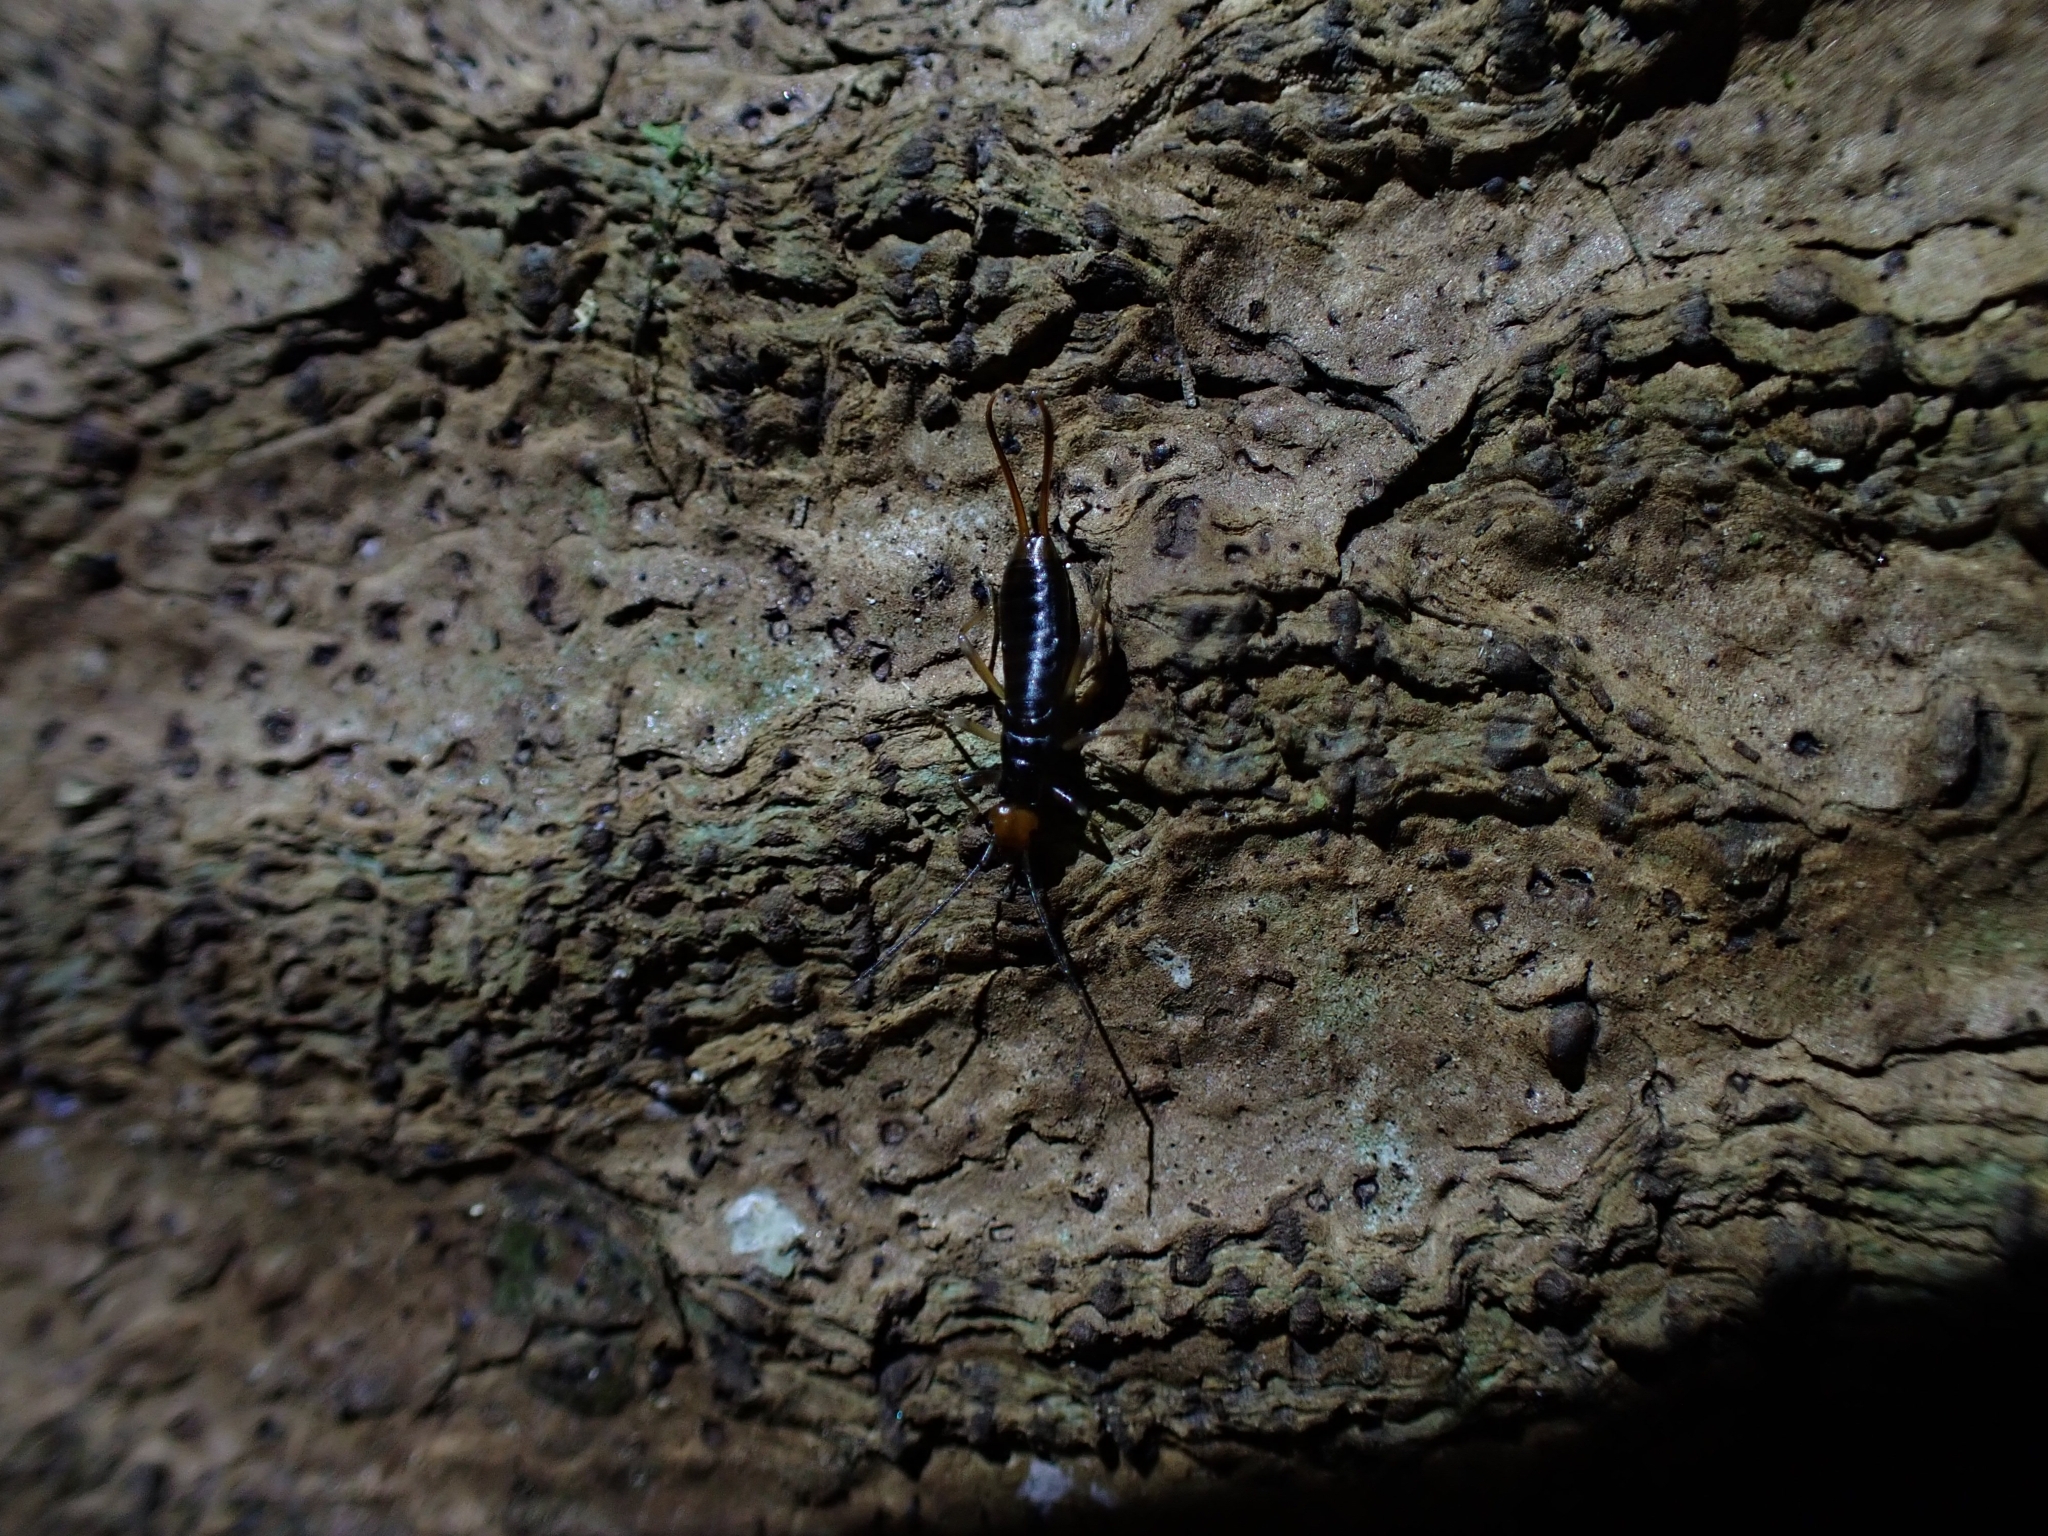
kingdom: Animalia
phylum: Arthropoda
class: Insecta
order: Dermaptera
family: Forficulidae
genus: Syntonus
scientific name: Syntonus venus
